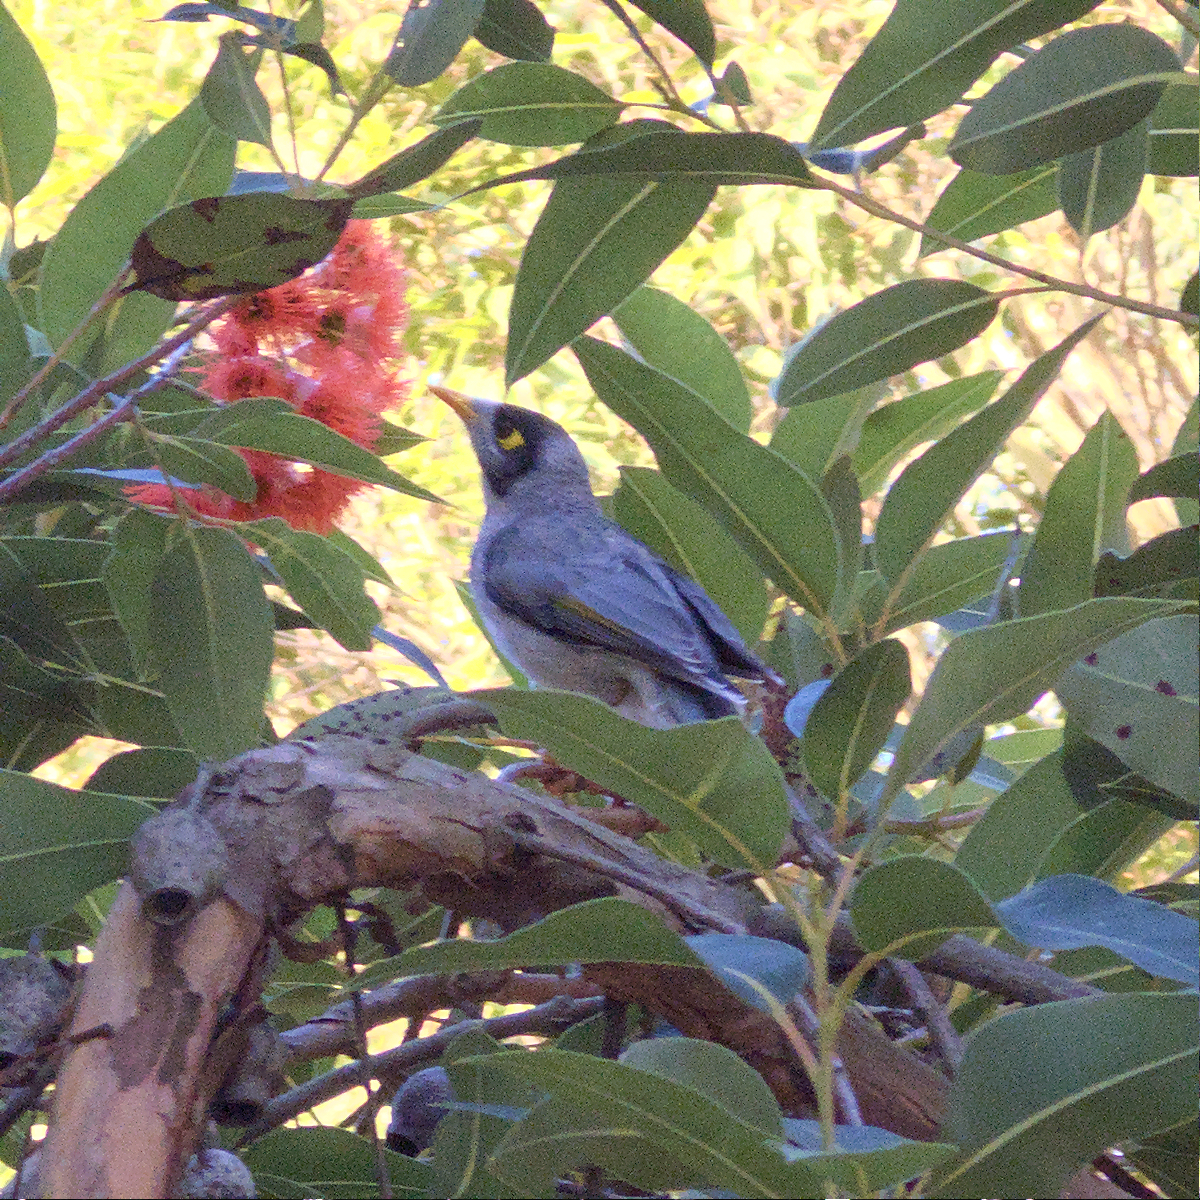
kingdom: Animalia
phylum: Chordata
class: Aves
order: Passeriformes
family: Meliphagidae
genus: Manorina
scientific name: Manorina melanocephala
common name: Noisy miner
